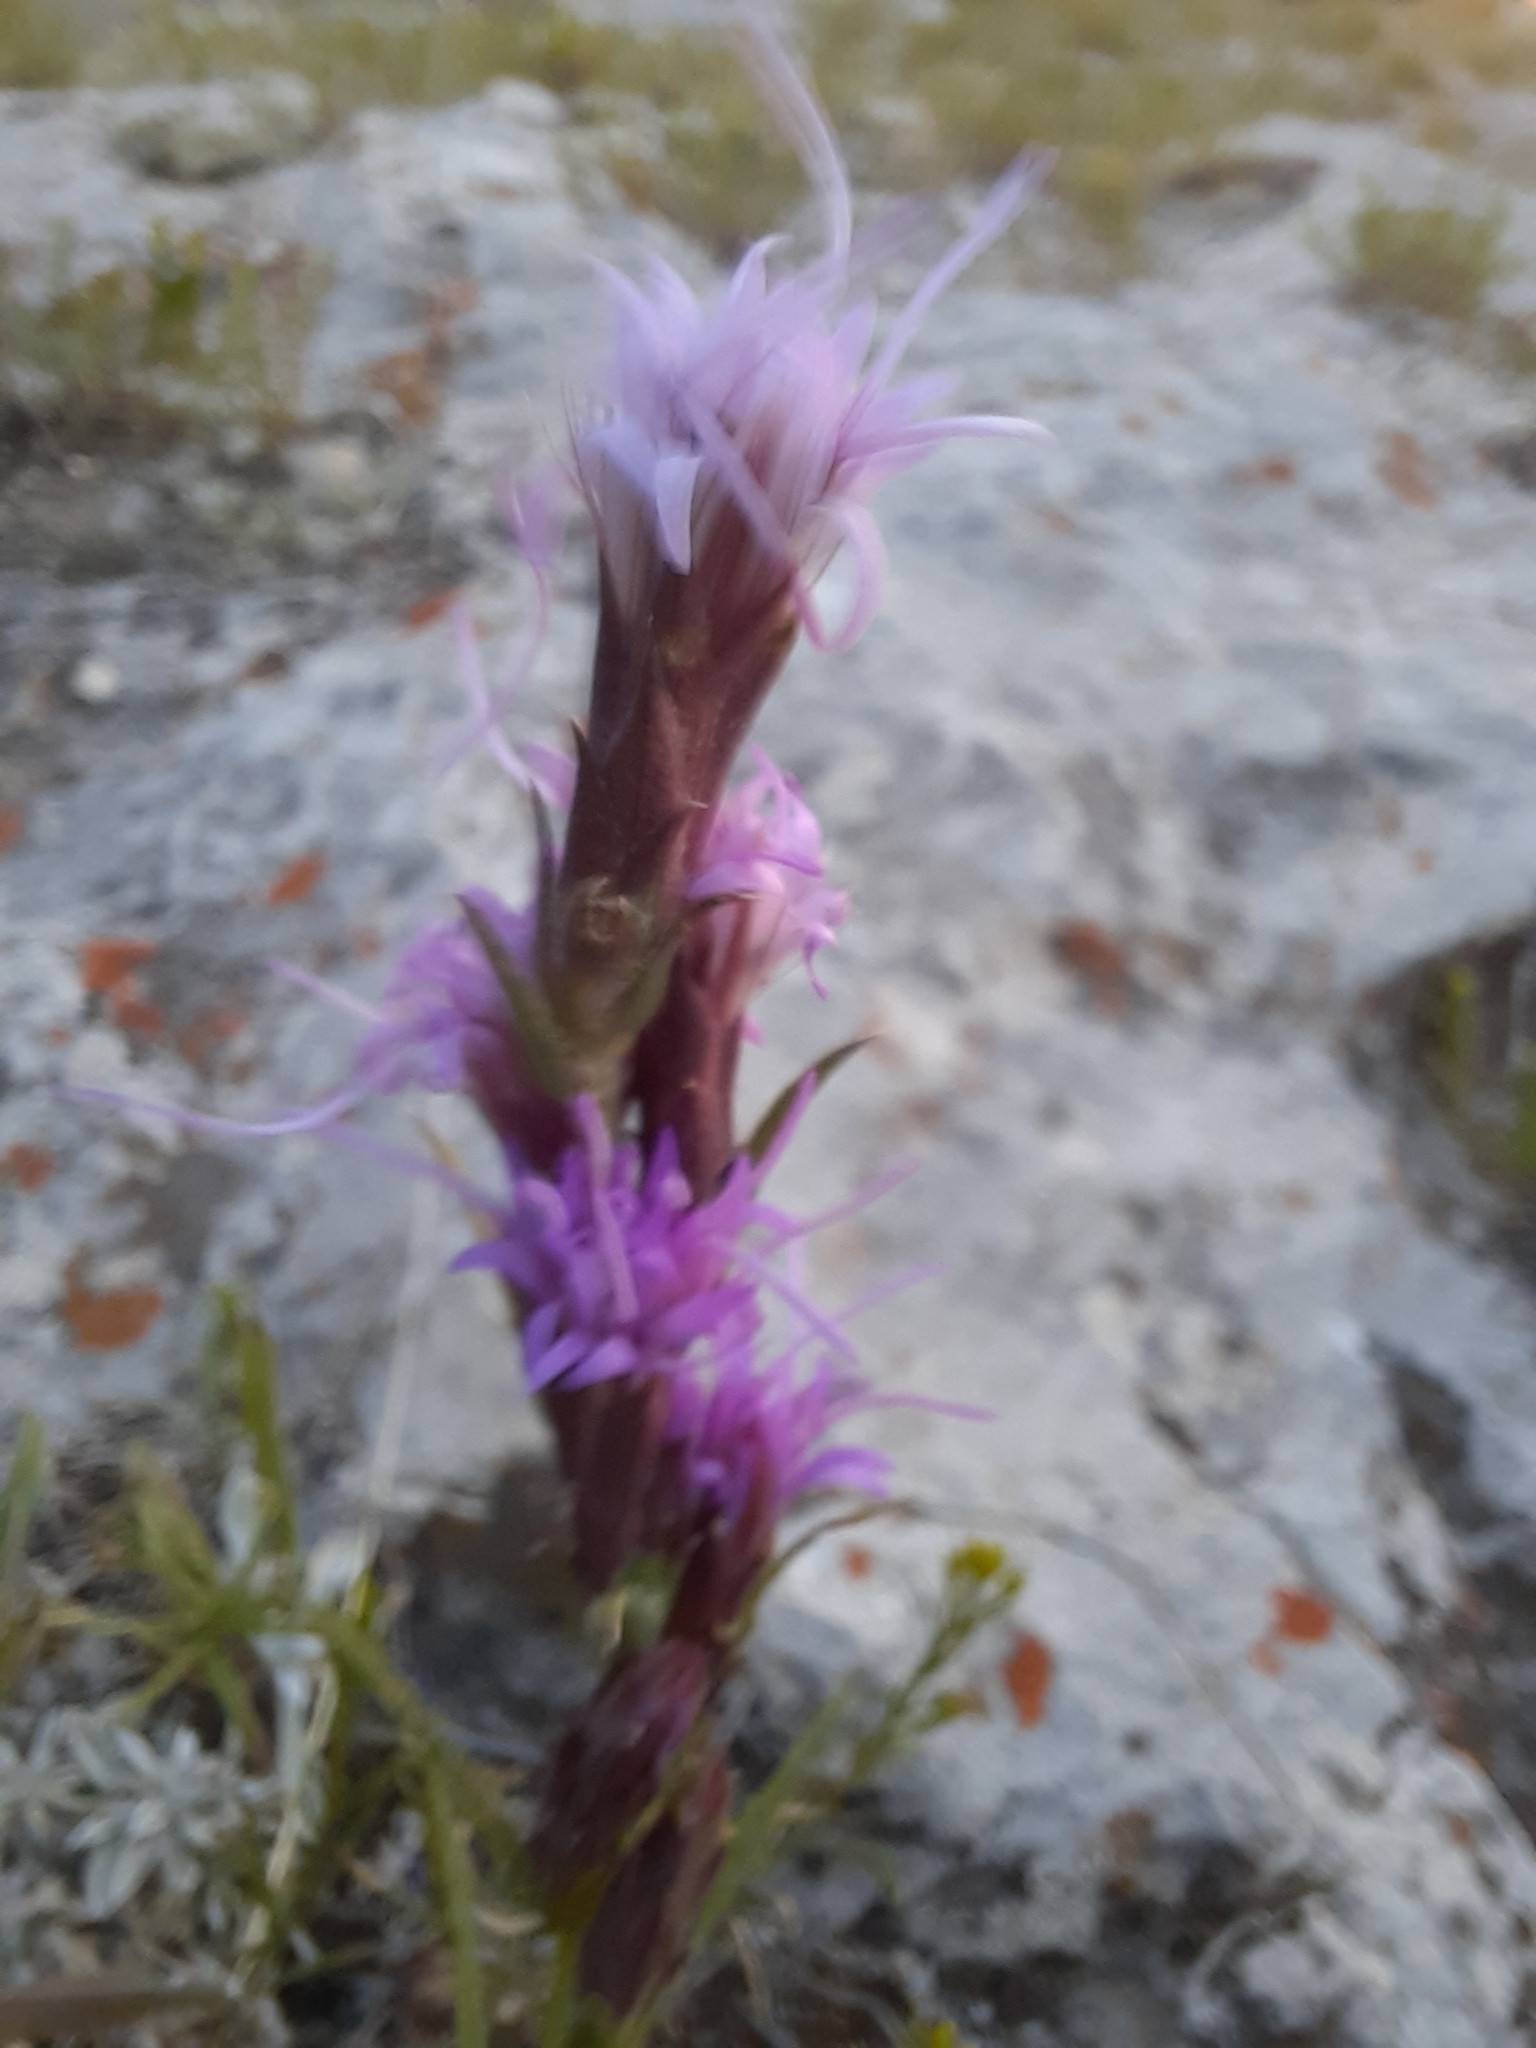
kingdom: Plantae
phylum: Tracheophyta
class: Magnoliopsida
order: Asterales
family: Asteraceae
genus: Liatris
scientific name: Liatris punctata
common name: Dotted gayfeather
